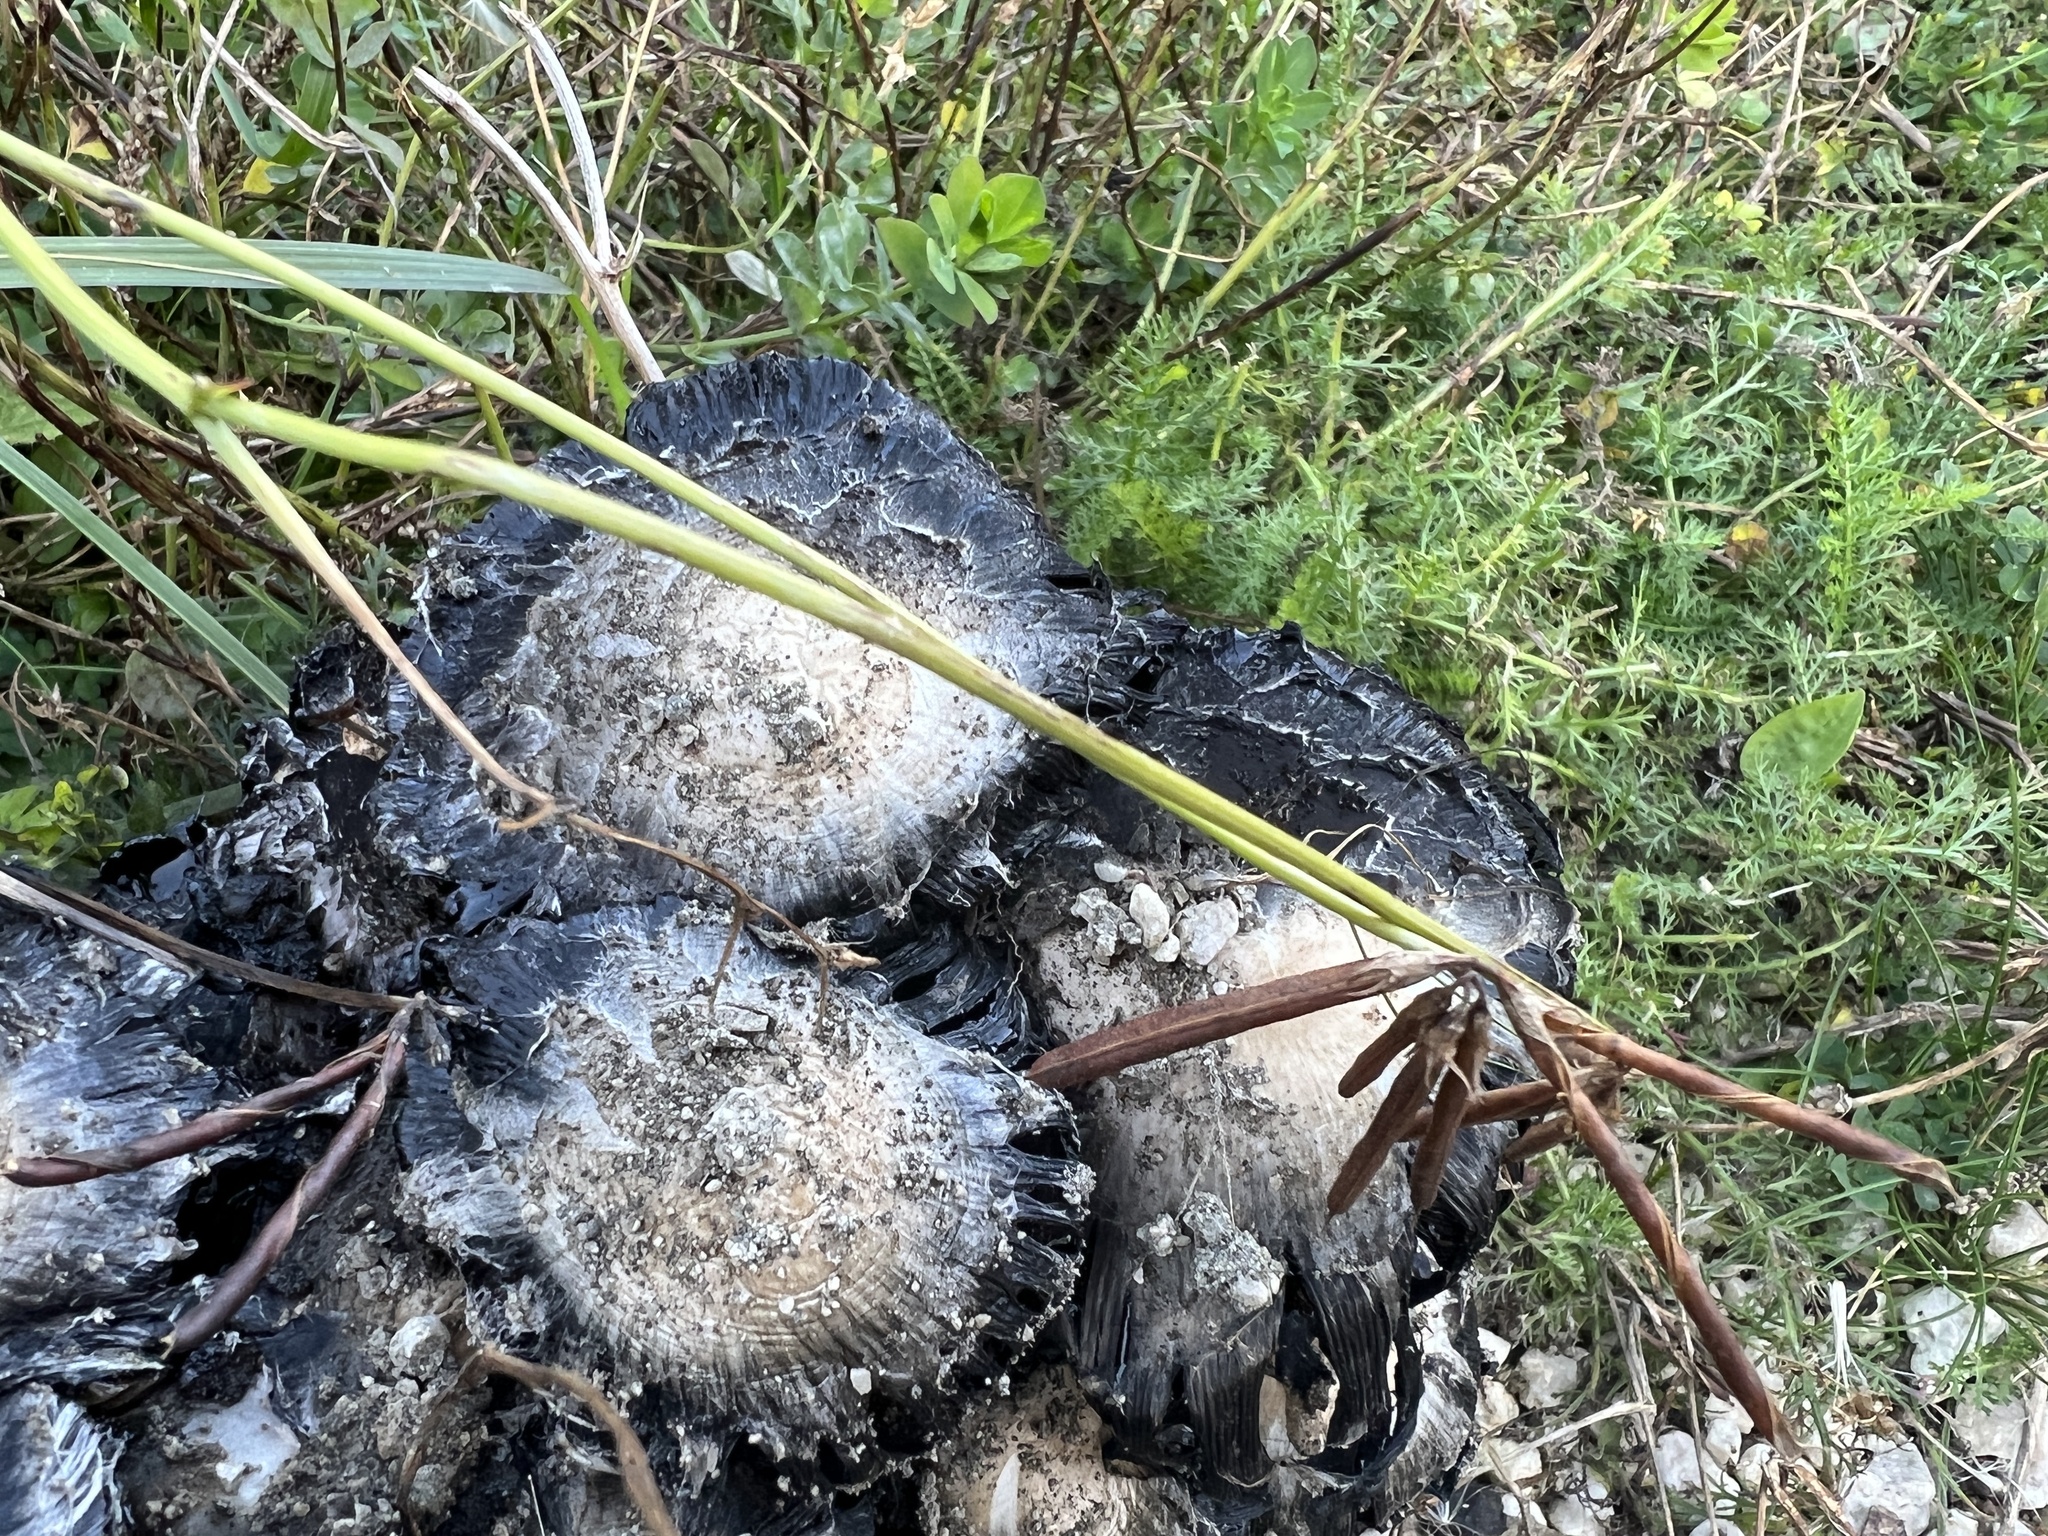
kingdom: Fungi
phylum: Basidiomycota
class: Agaricomycetes
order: Agaricales
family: Agaricaceae
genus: Coprinus
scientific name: Coprinus comatus
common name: Lawyer's wig
